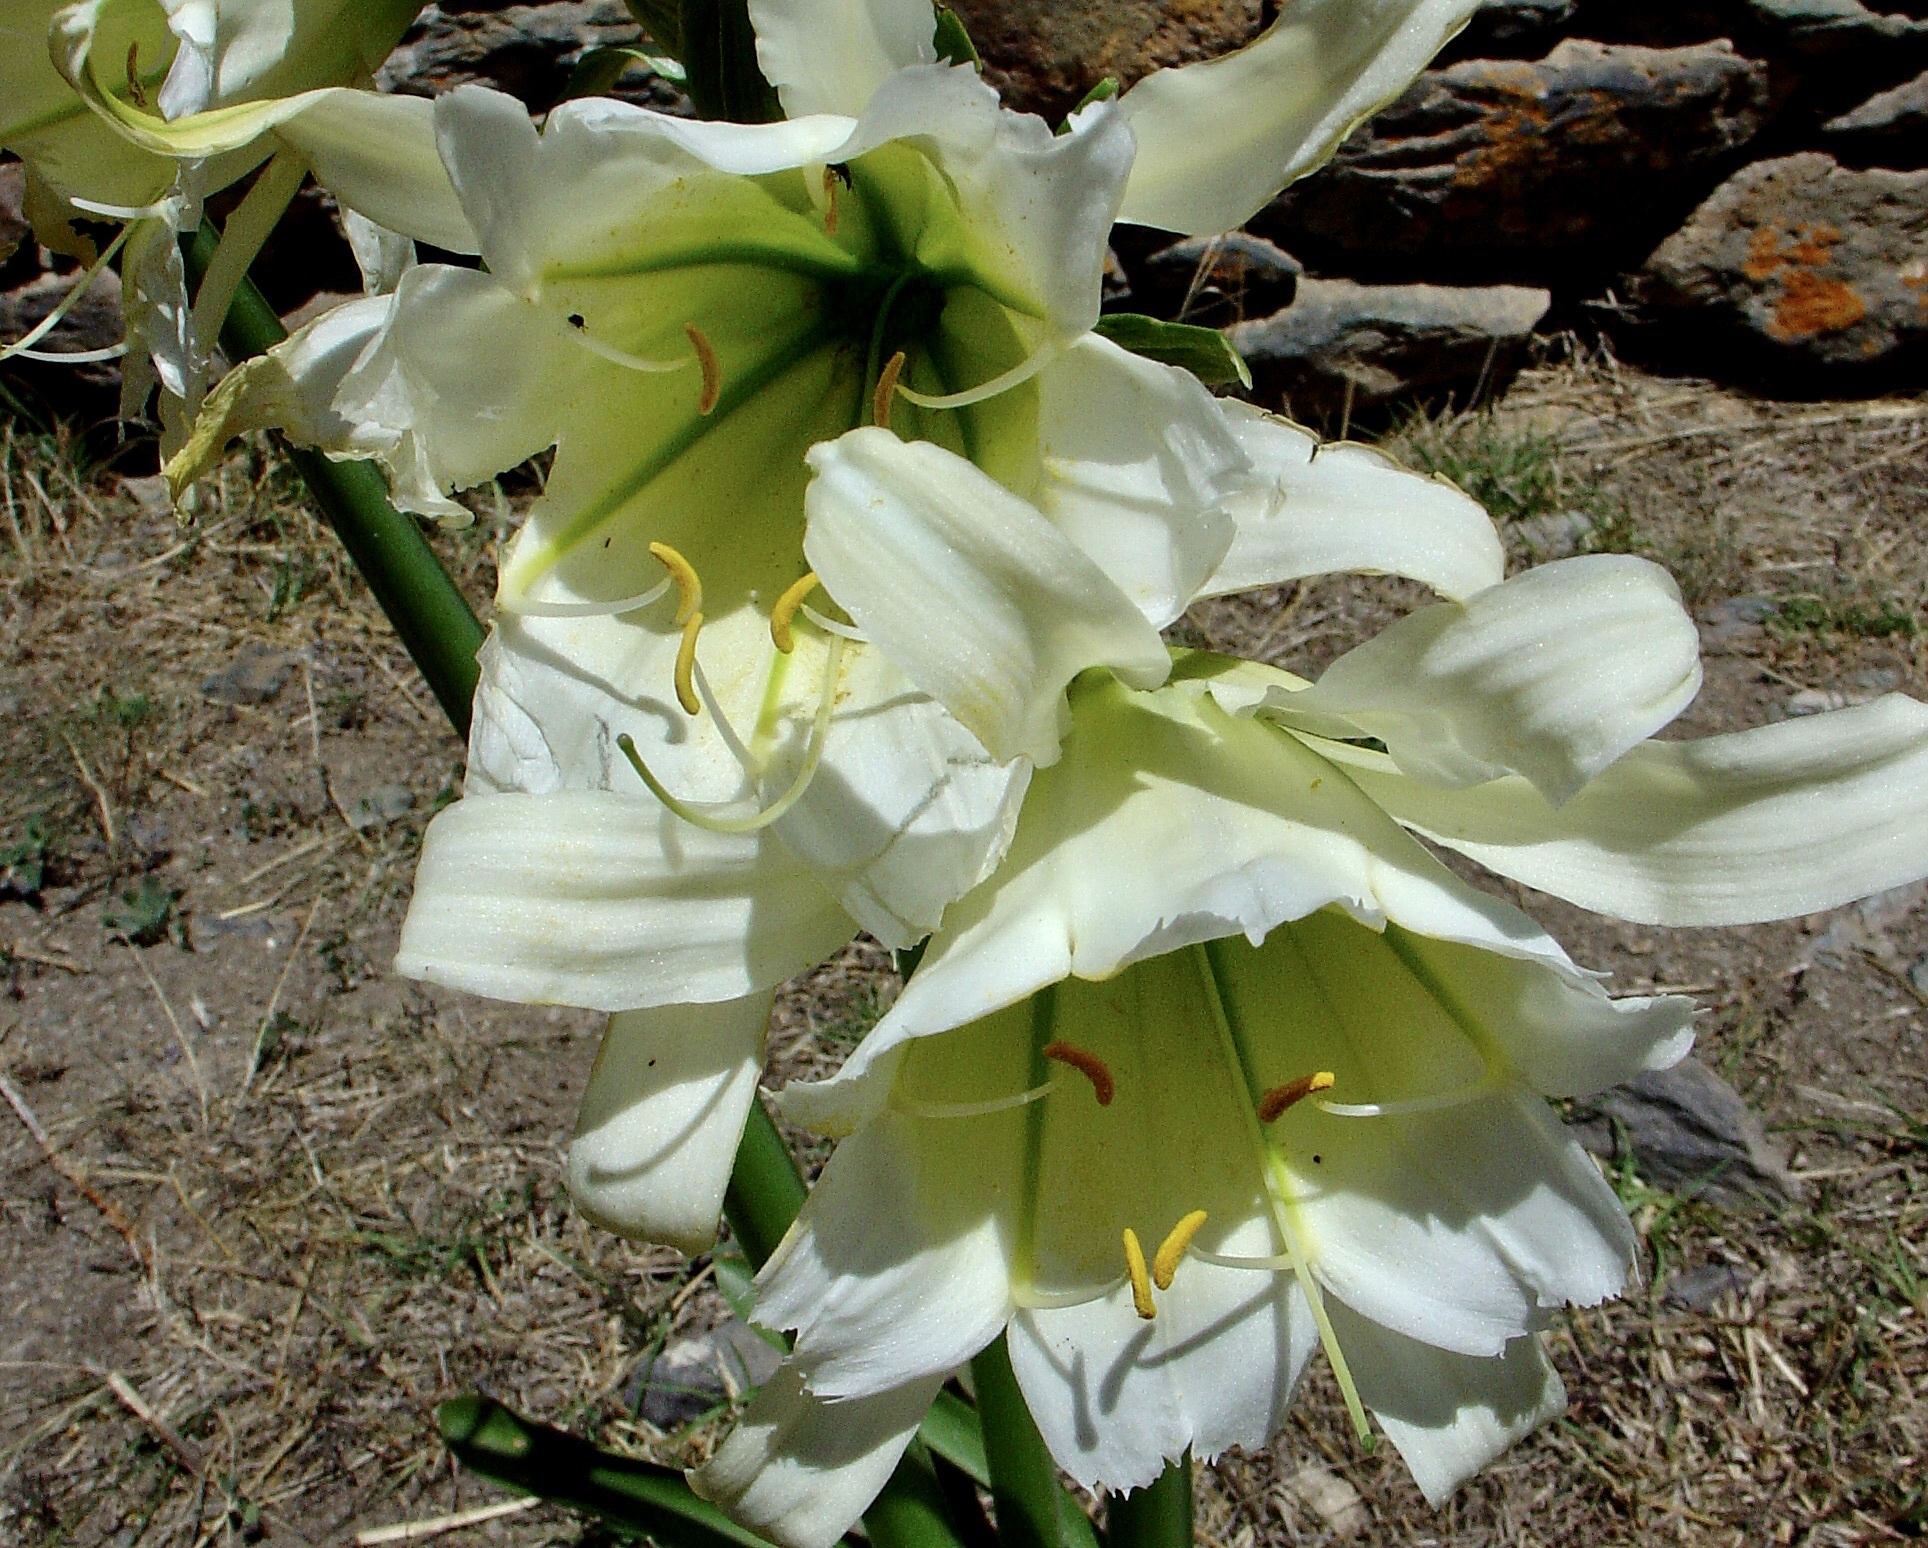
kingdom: Plantae
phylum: Tracheophyta
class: Liliopsida
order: Asparagales
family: Amaryllidaceae
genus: Ismene
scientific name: Ismene hawkesii
